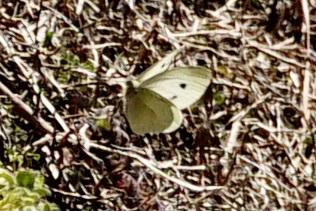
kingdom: Animalia
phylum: Arthropoda
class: Insecta
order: Lepidoptera
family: Pieridae
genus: Pieris
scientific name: Pieris rapae
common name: Small white
